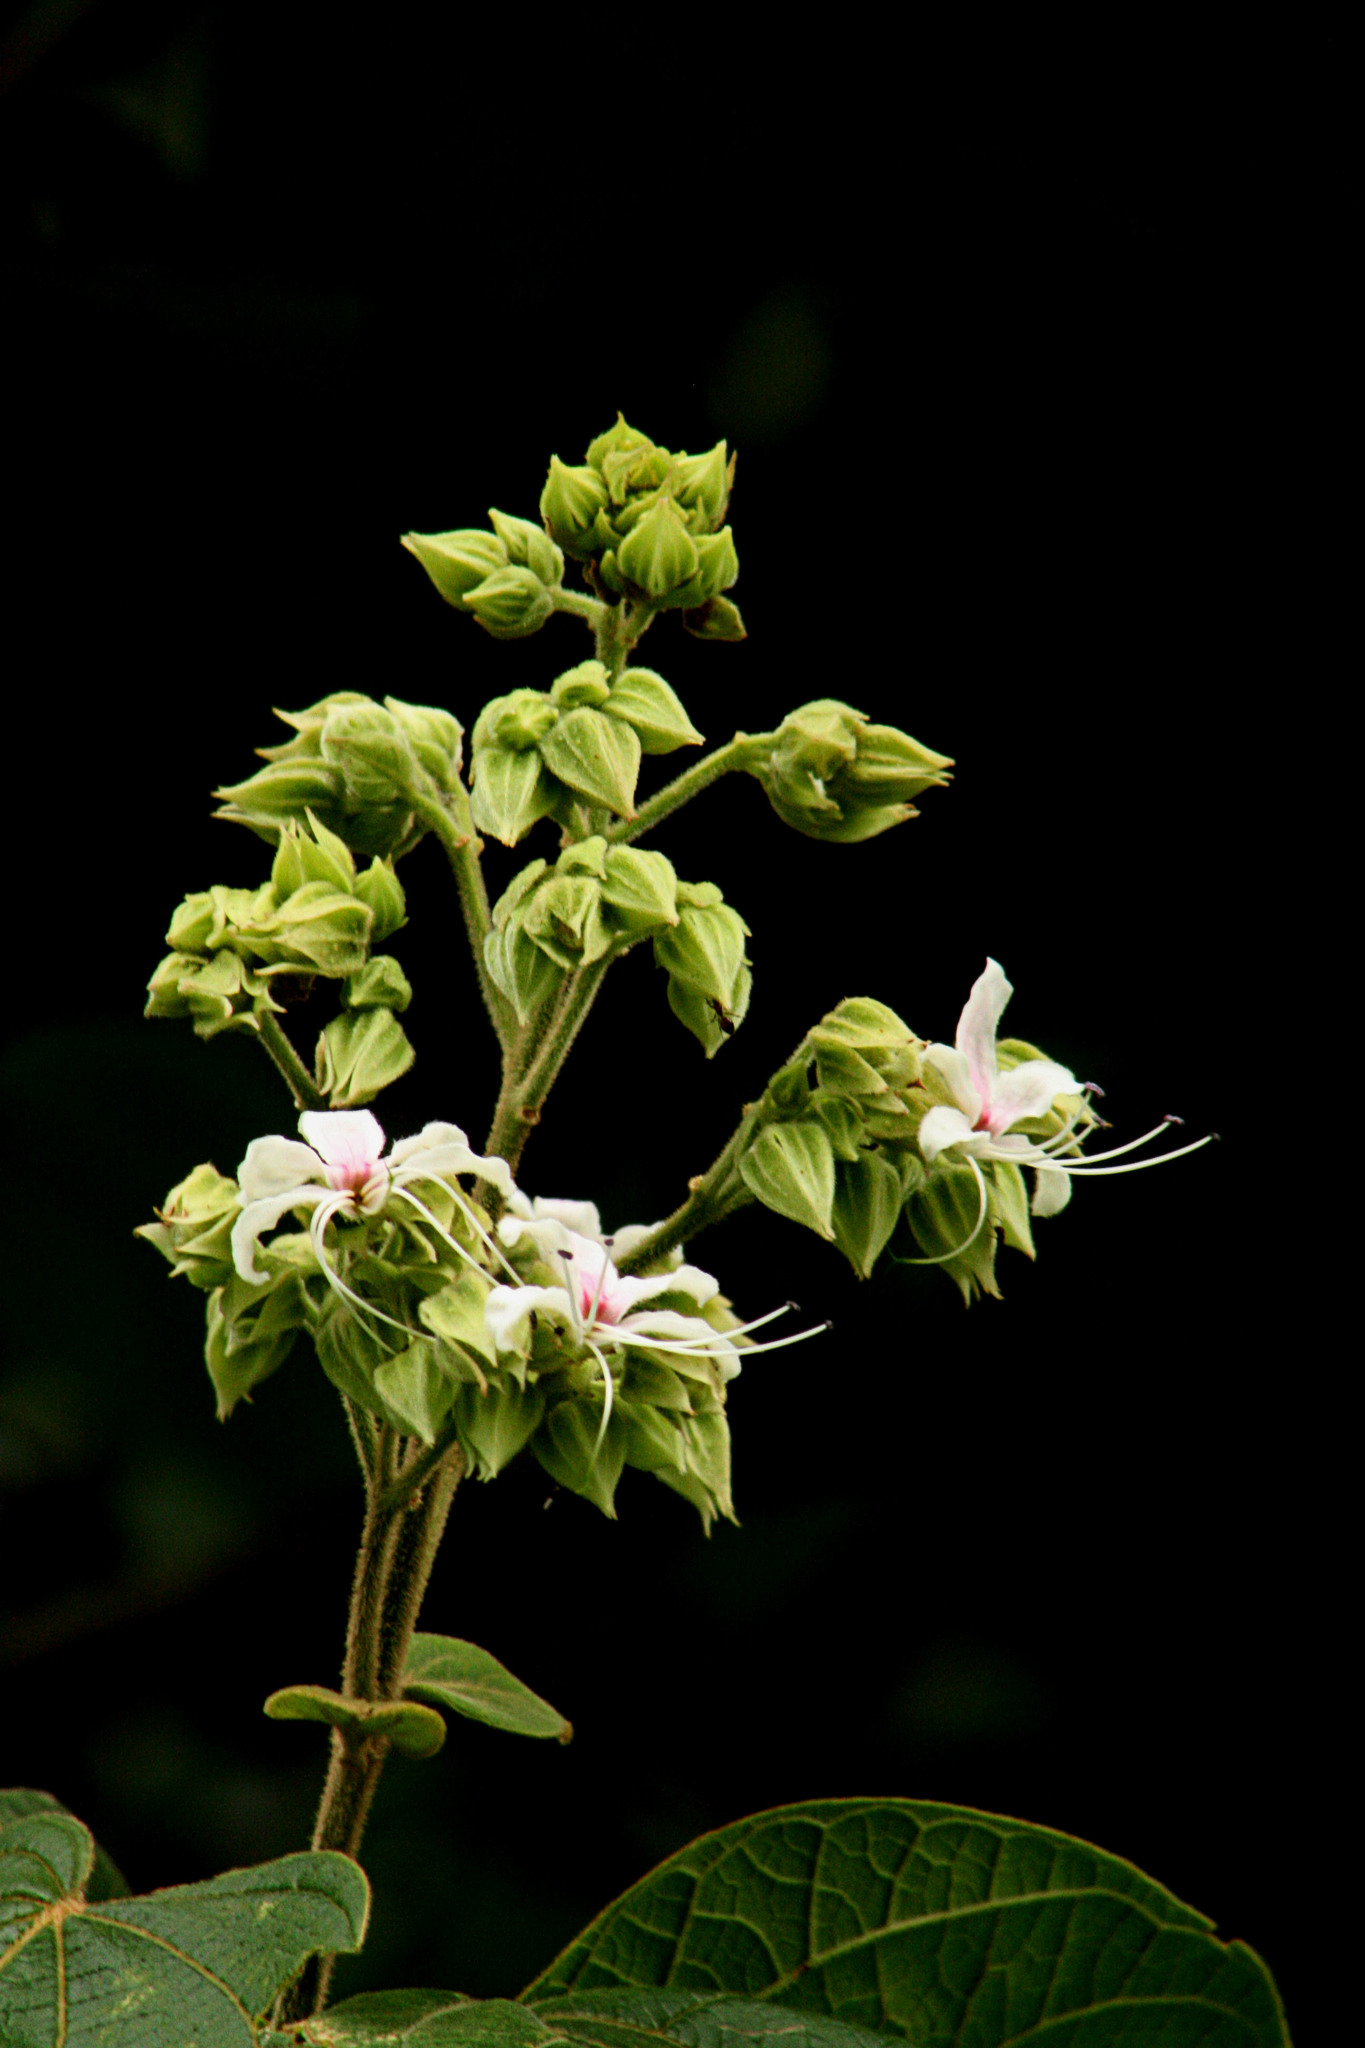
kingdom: Plantae
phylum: Tracheophyta
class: Magnoliopsida
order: Lamiales
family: Lamiaceae
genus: Clerodendrum
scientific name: Clerodendrum infortunatum
